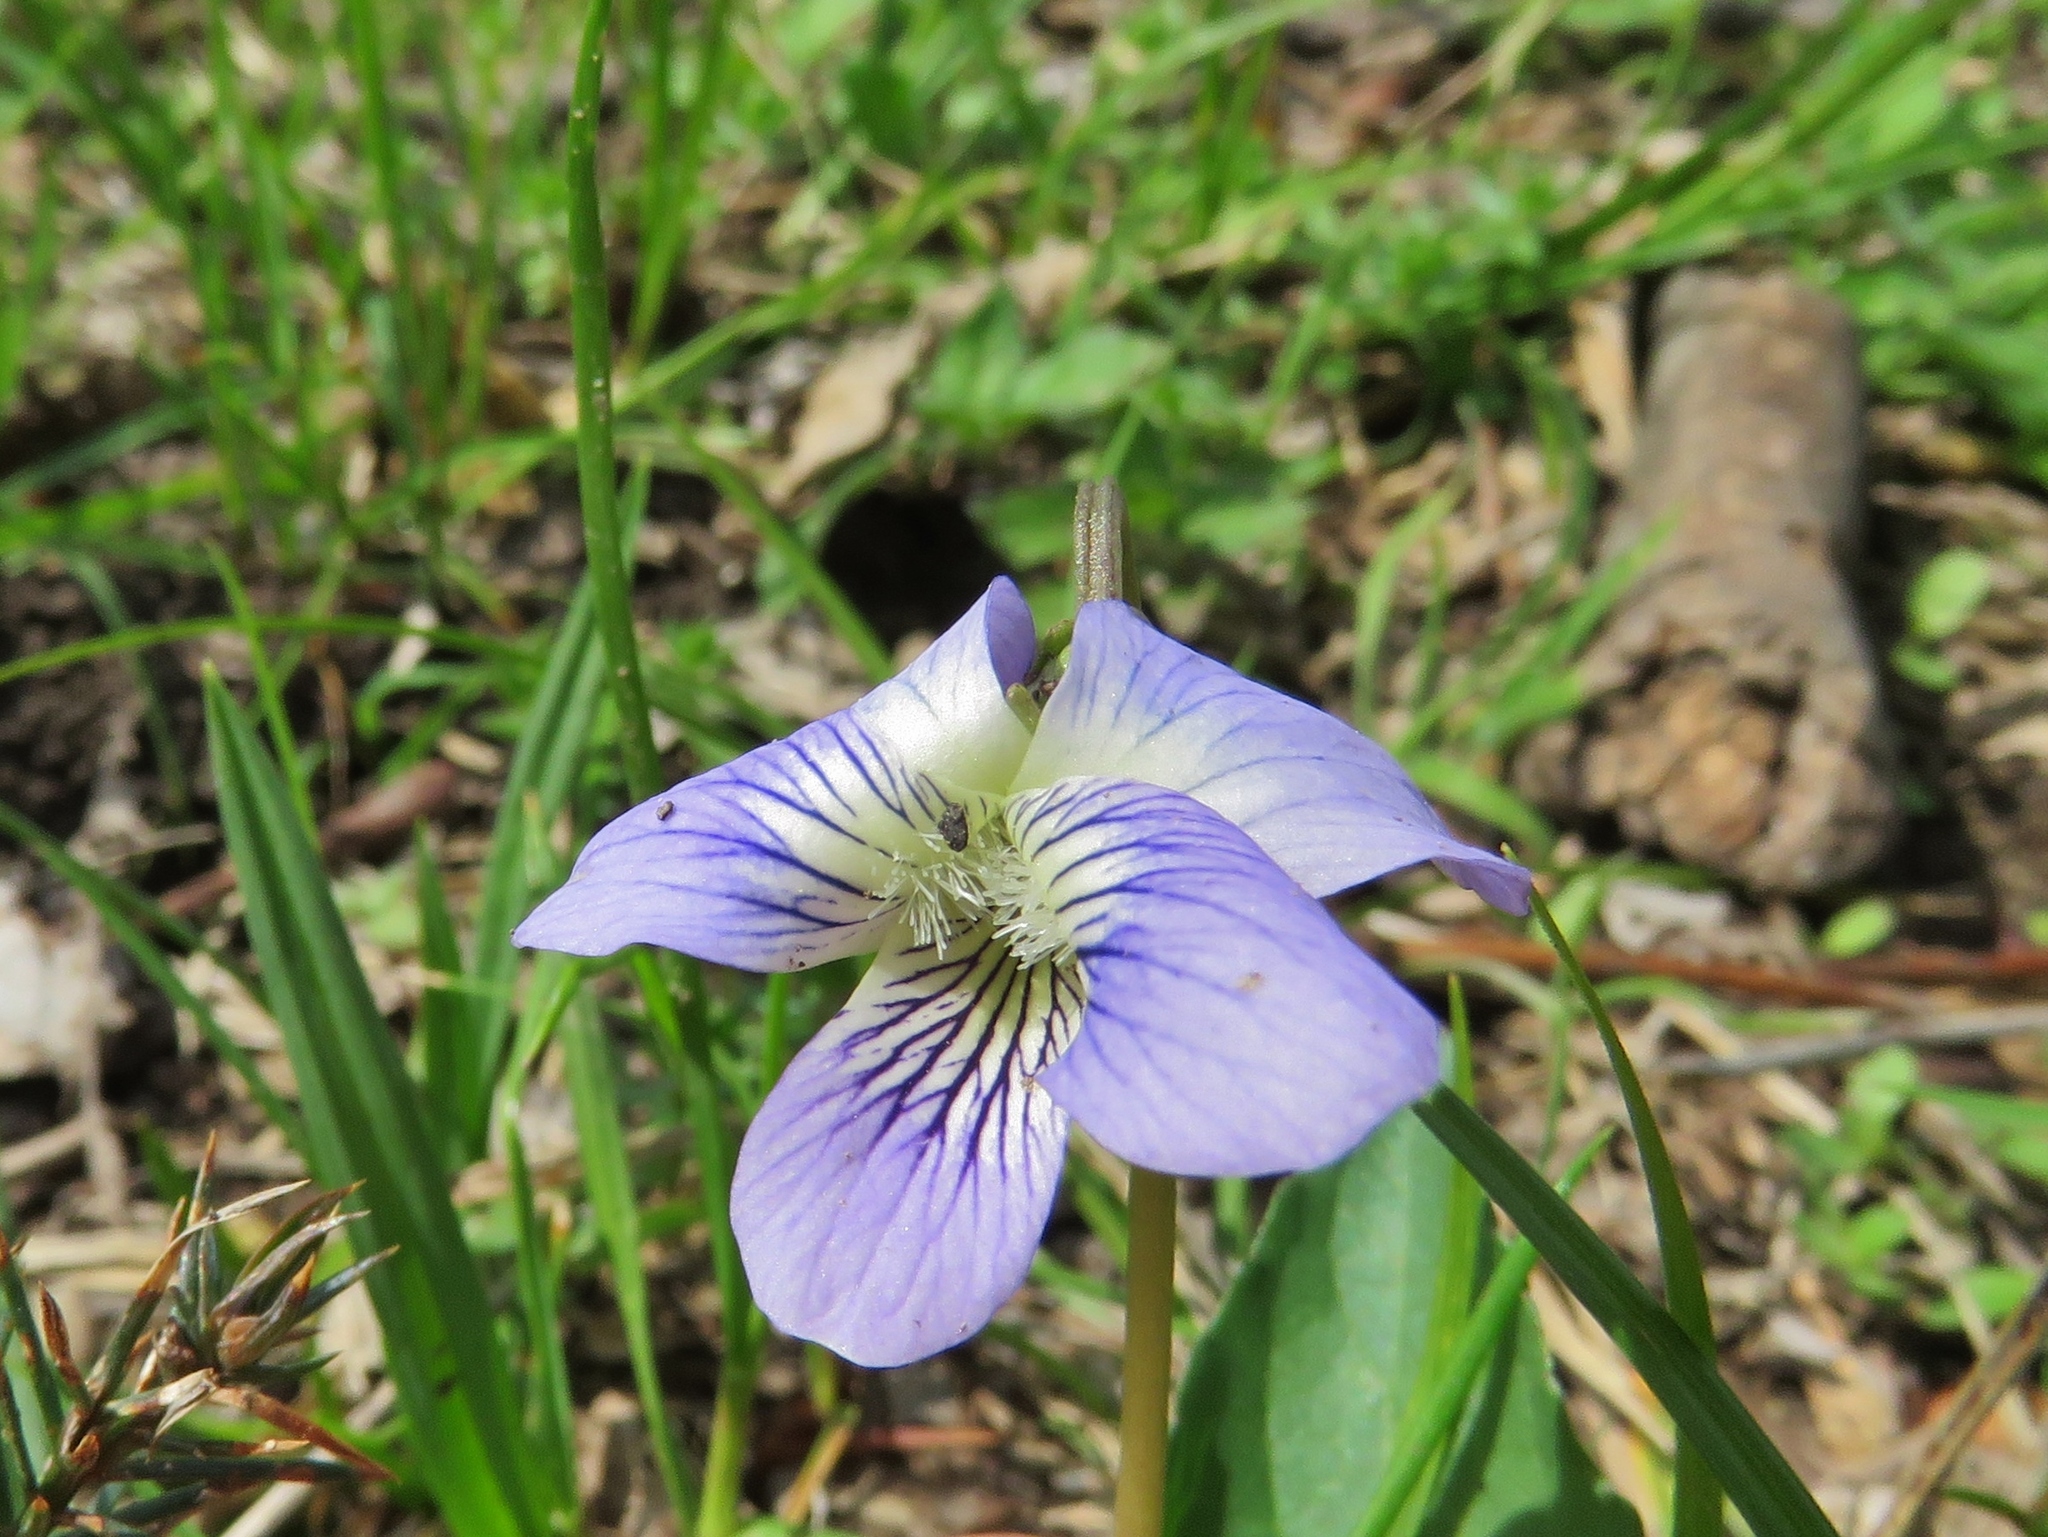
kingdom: Plantae
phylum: Tracheophyta
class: Magnoliopsida
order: Malpighiales
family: Violaceae
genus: Viola
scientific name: Viola sororia
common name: Dooryard violet
